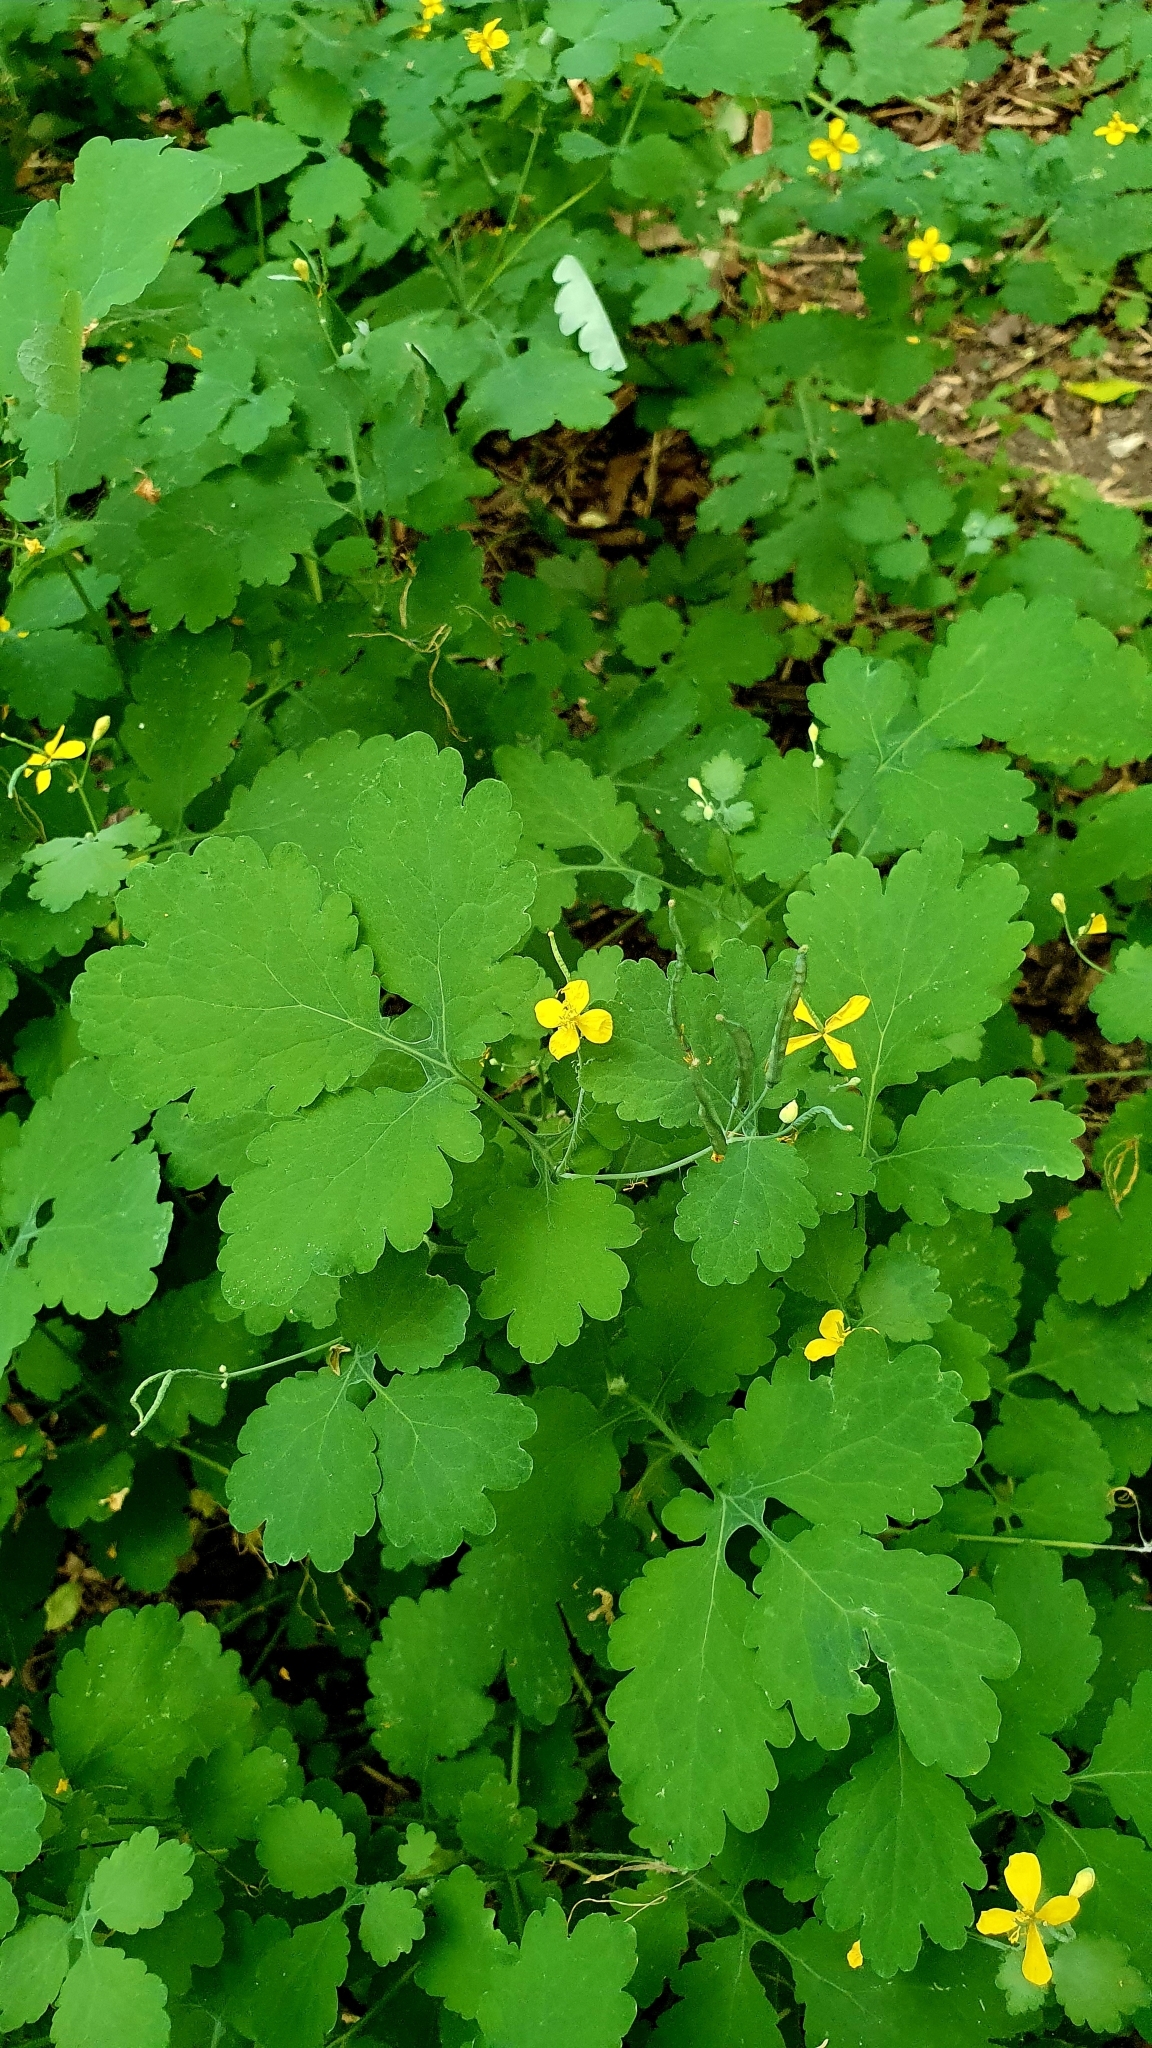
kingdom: Plantae
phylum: Tracheophyta
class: Magnoliopsida
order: Ranunculales
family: Papaveraceae
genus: Chelidonium
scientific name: Chelidonium majus
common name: Greater celandine
